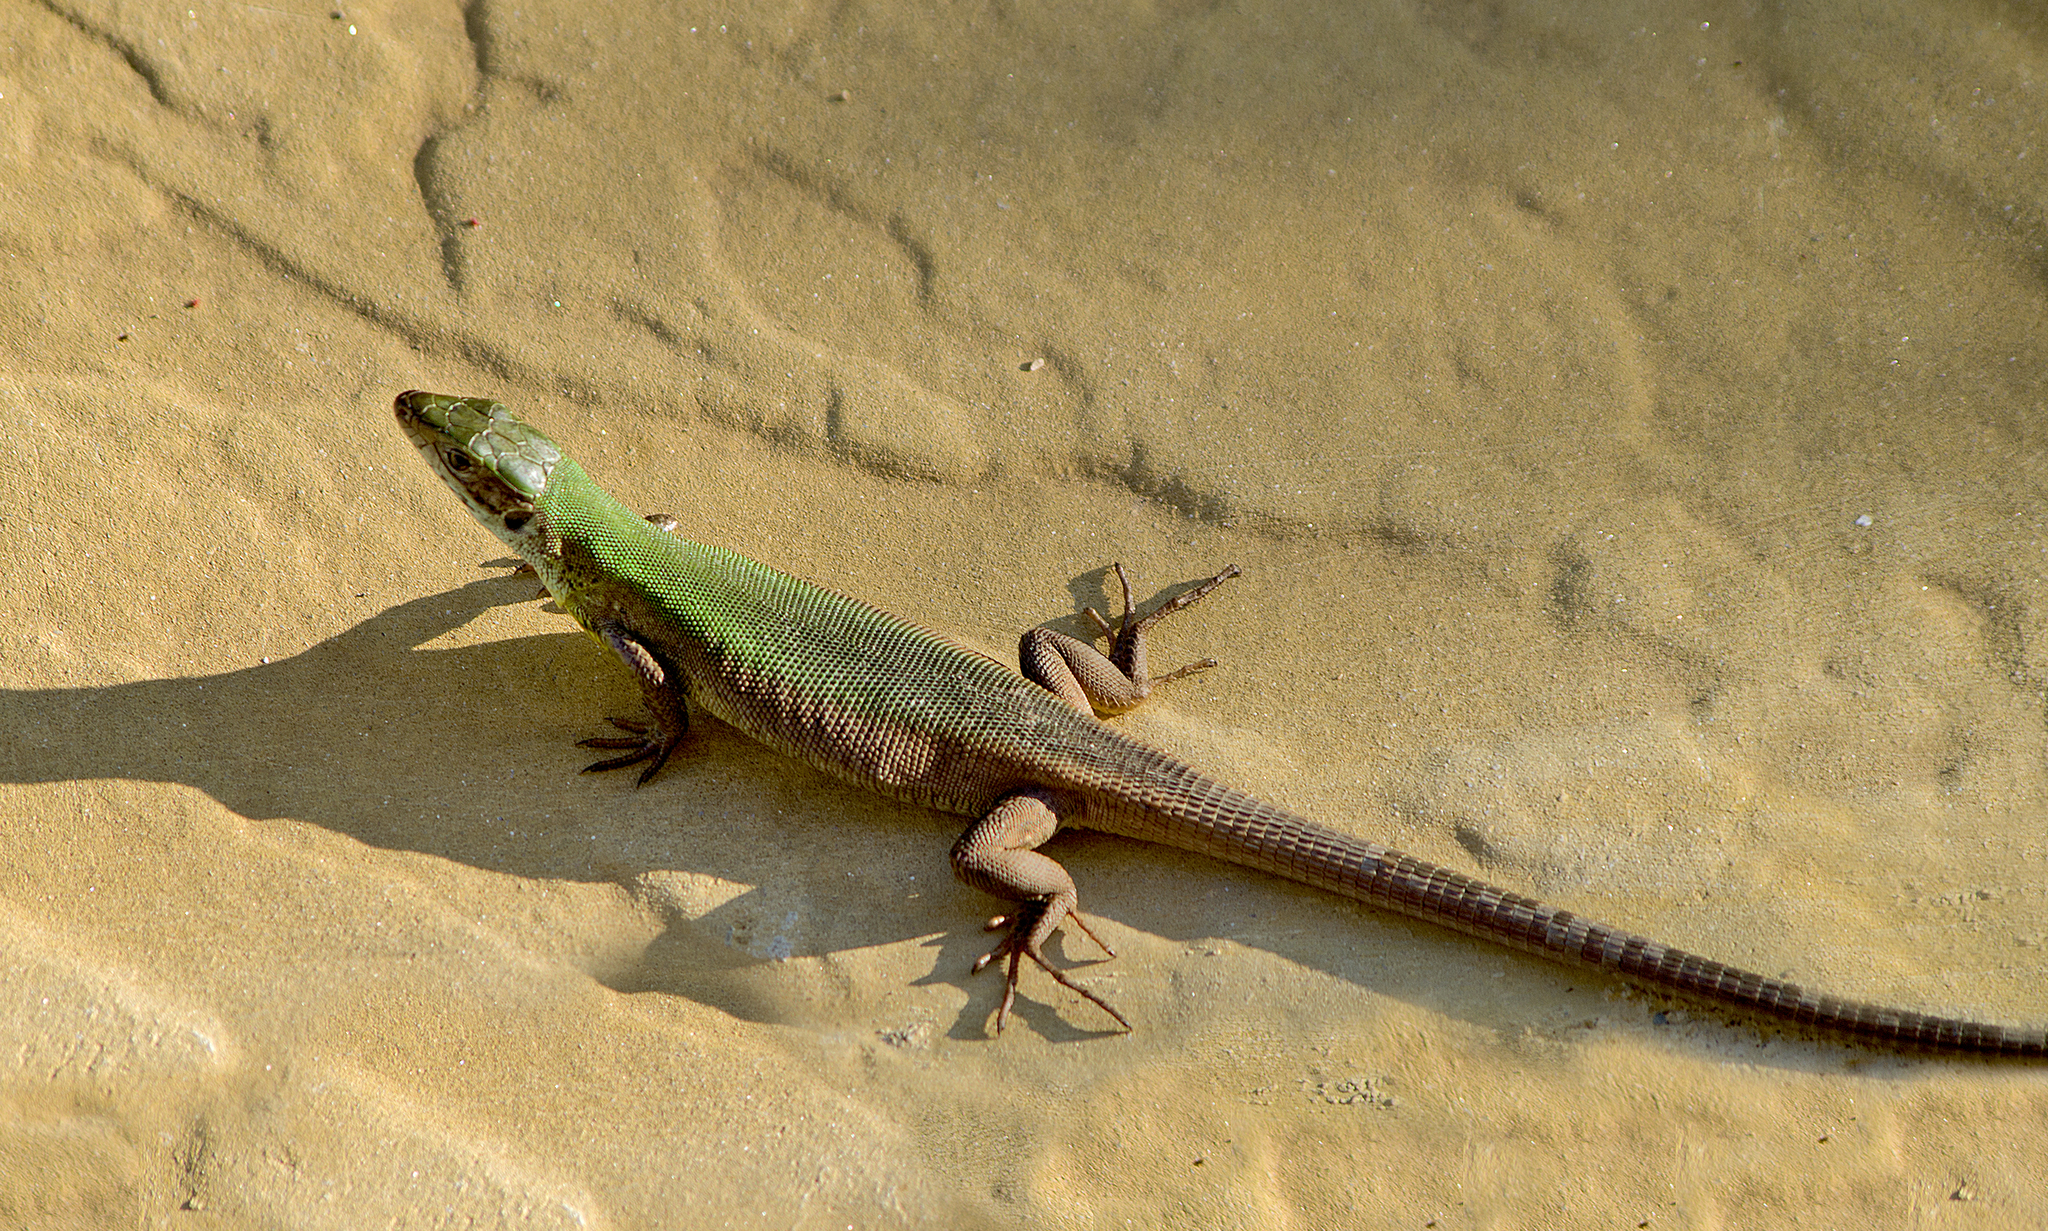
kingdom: Animalia
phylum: Chordata
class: Squamata
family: Lacertidae
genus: Lacerta
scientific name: Lacerta viridis
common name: European green lizard
